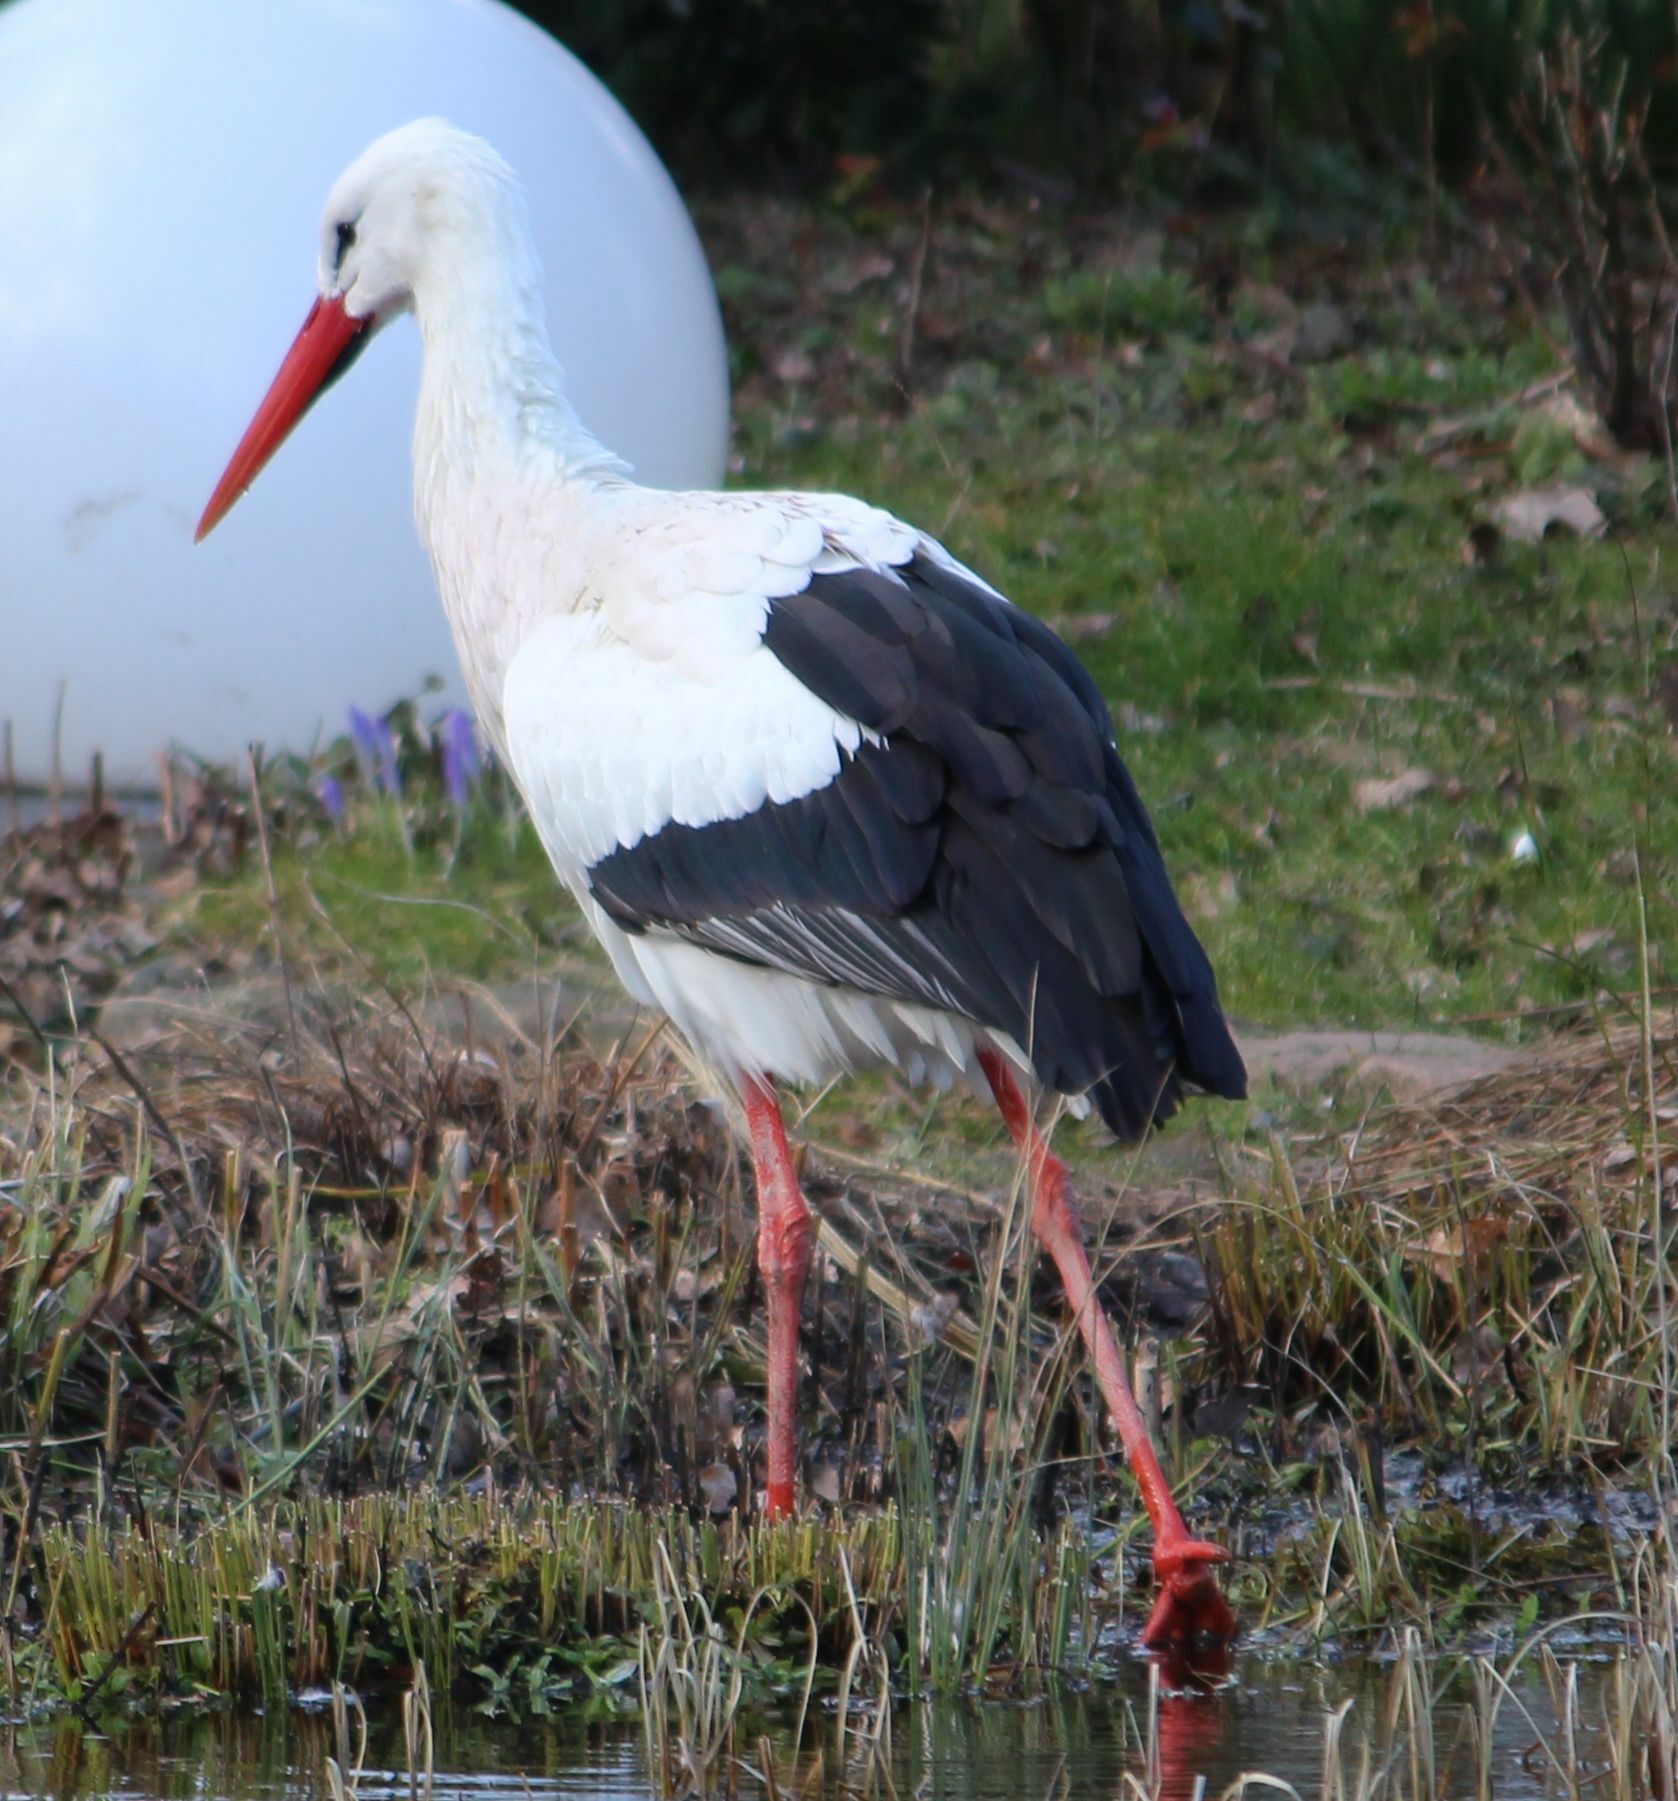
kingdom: Animalia
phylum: Chordata
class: Aves
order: Ciconiiformes
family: Ciconiidae
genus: Ciconia
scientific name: Ciconia ciconia
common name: White stork
